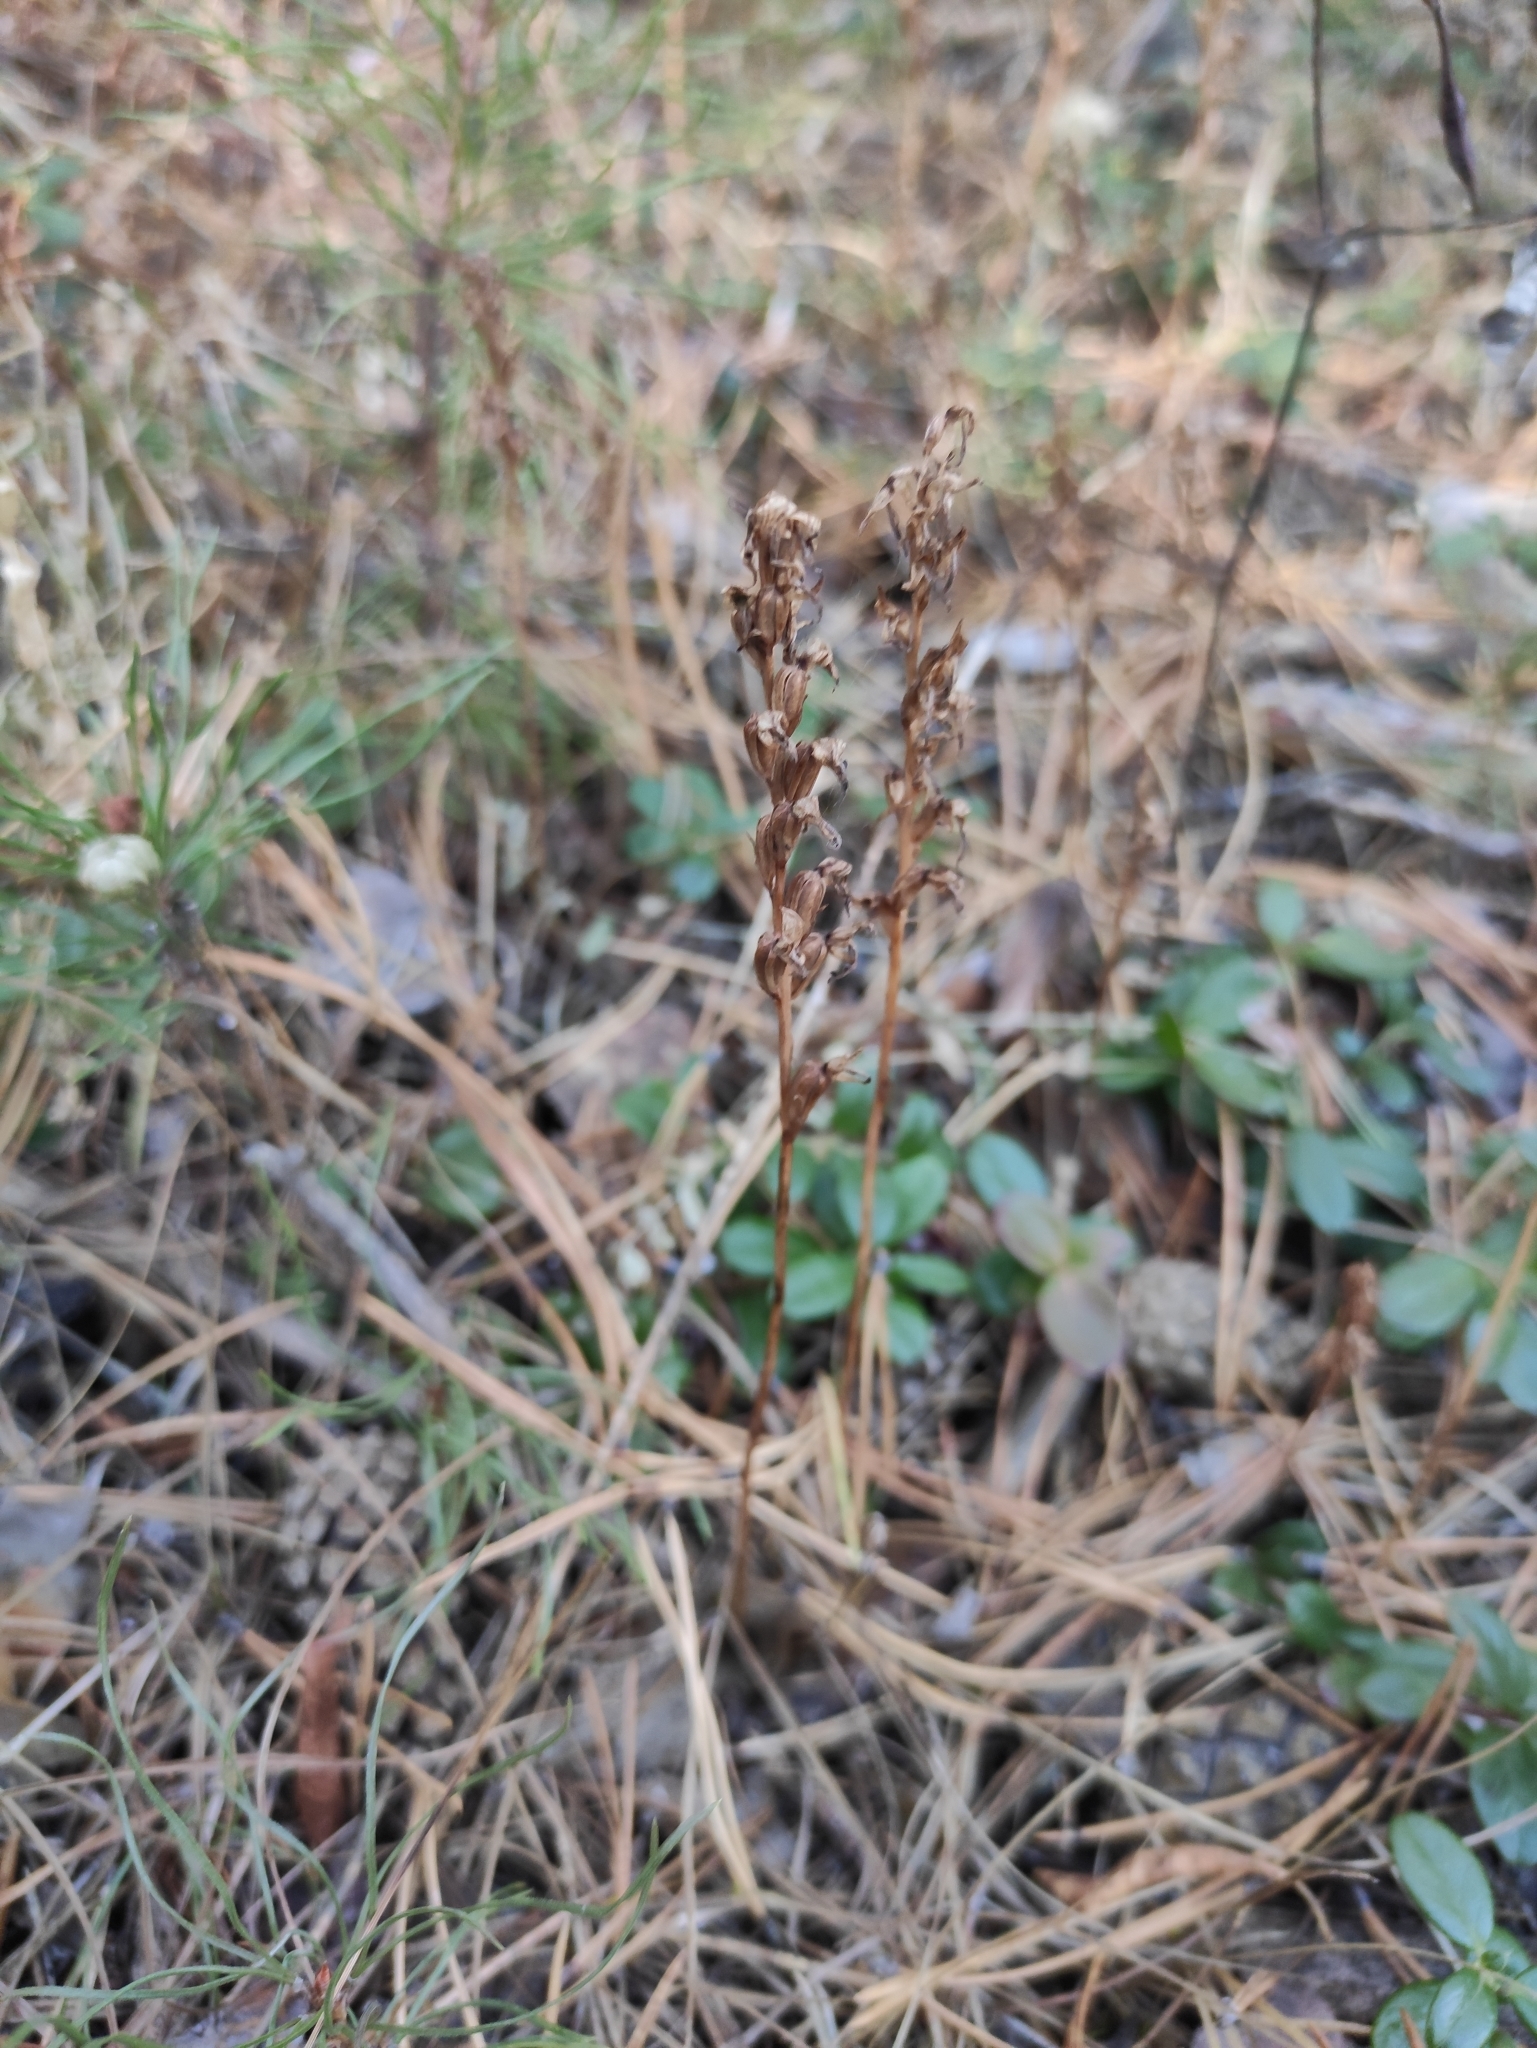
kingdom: Plantae
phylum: Tracheophyta
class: Liliopsida
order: Asparagales
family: Orchidaceae
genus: Hemipilia
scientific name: Hemipilia cucullata
